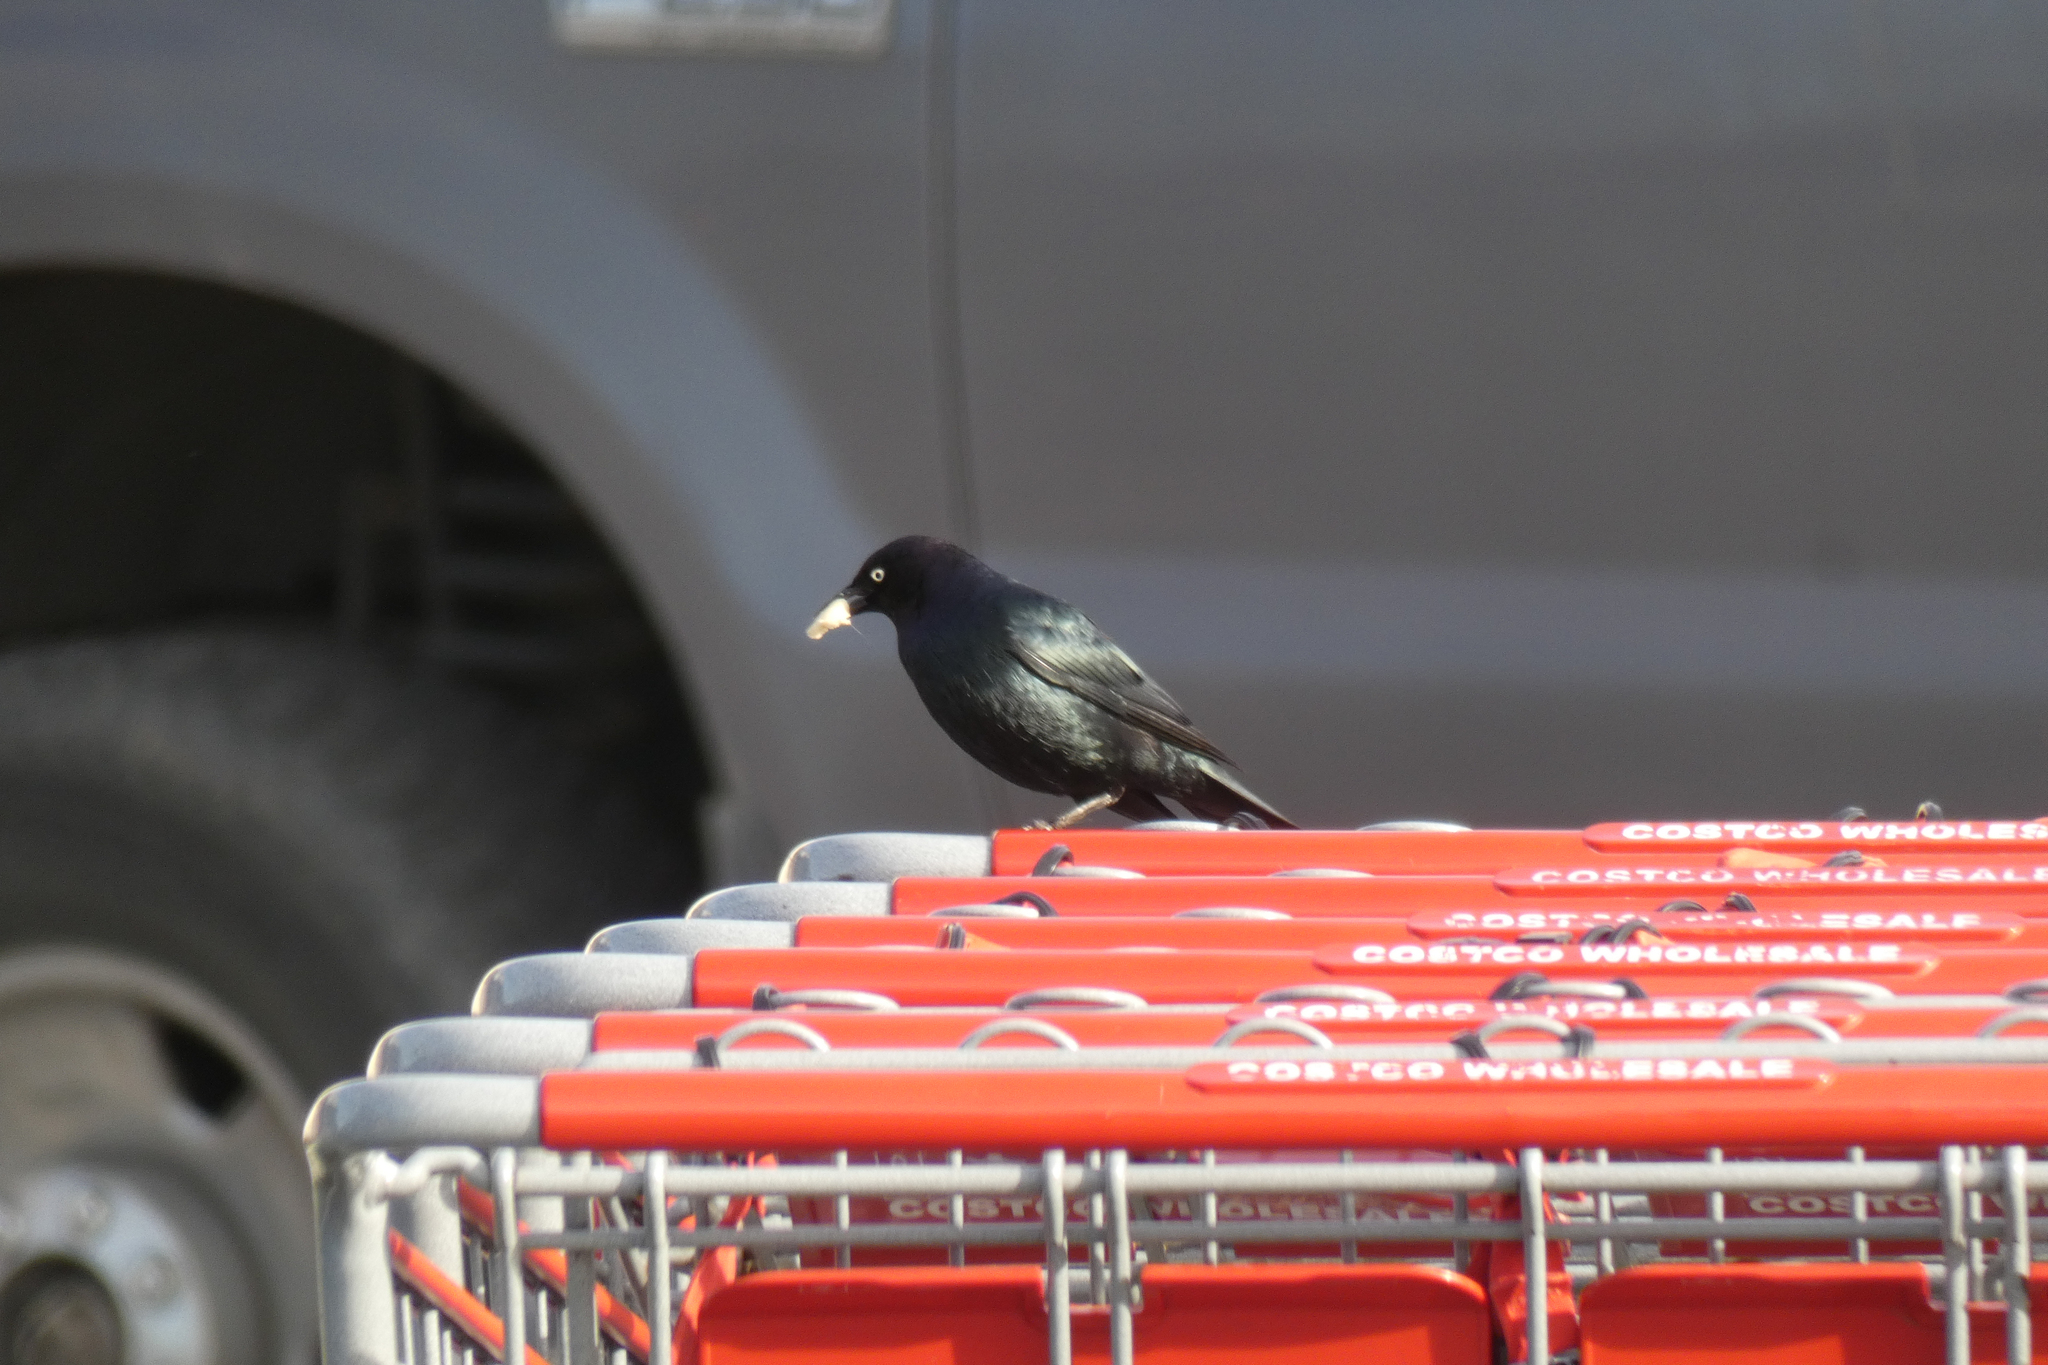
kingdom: Animalia
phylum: Chordata
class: Aves
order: Passeriformes
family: Icteridae
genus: Euphagus
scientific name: Euphagus cyanocephalus
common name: Brewer's blackbird
